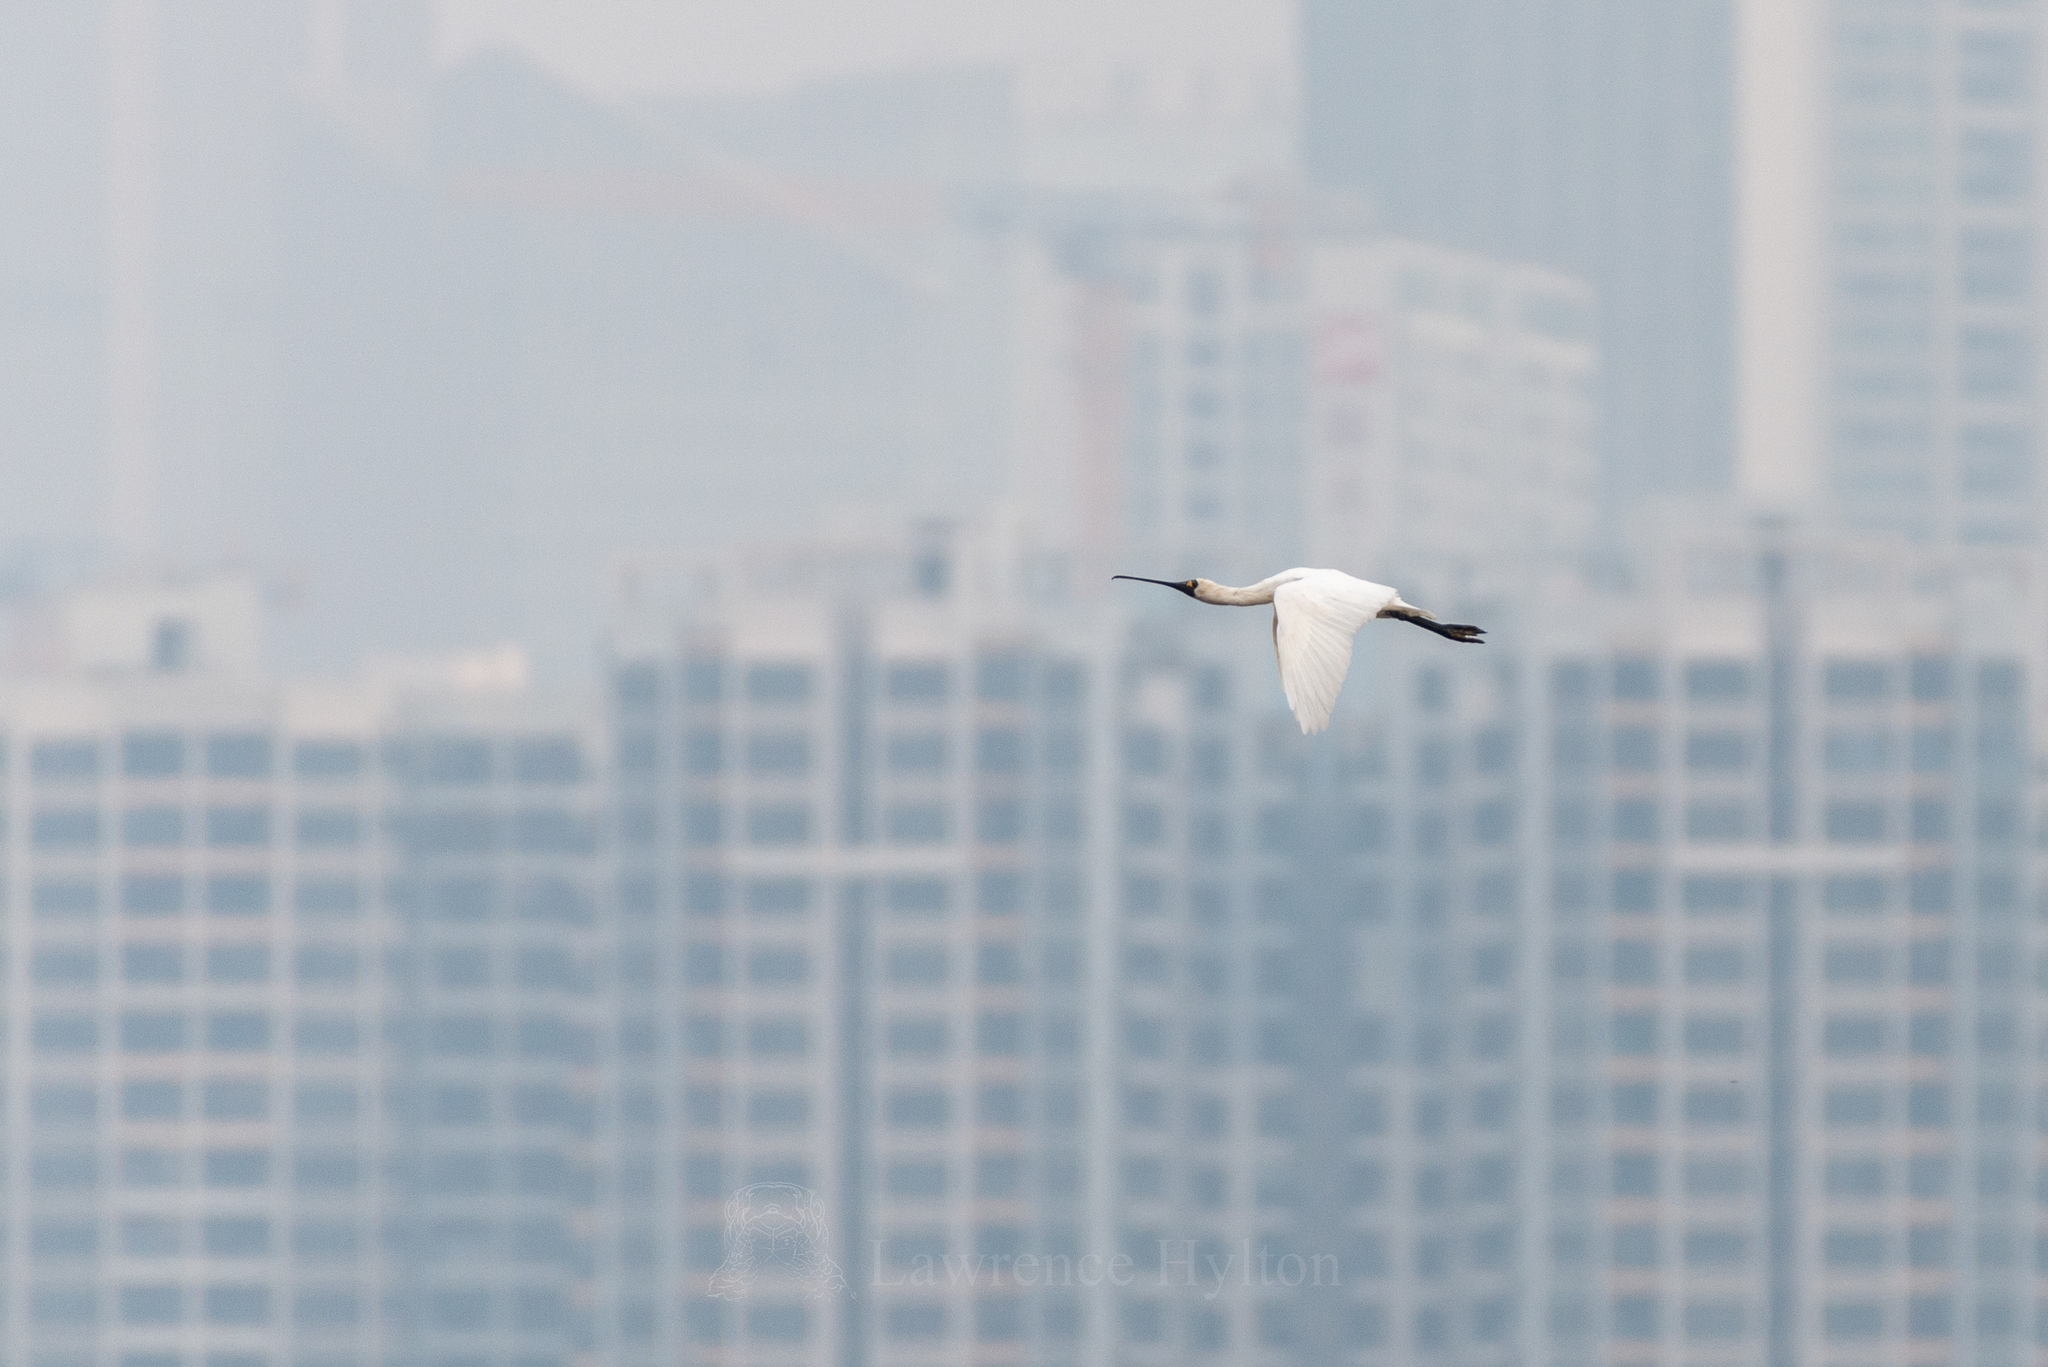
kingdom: Animalia
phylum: Chordata
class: Aves
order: Pelecaniformes
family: Threskiornithidae
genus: Platalea
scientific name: Platalea minor
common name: Black-faced spoonbill
